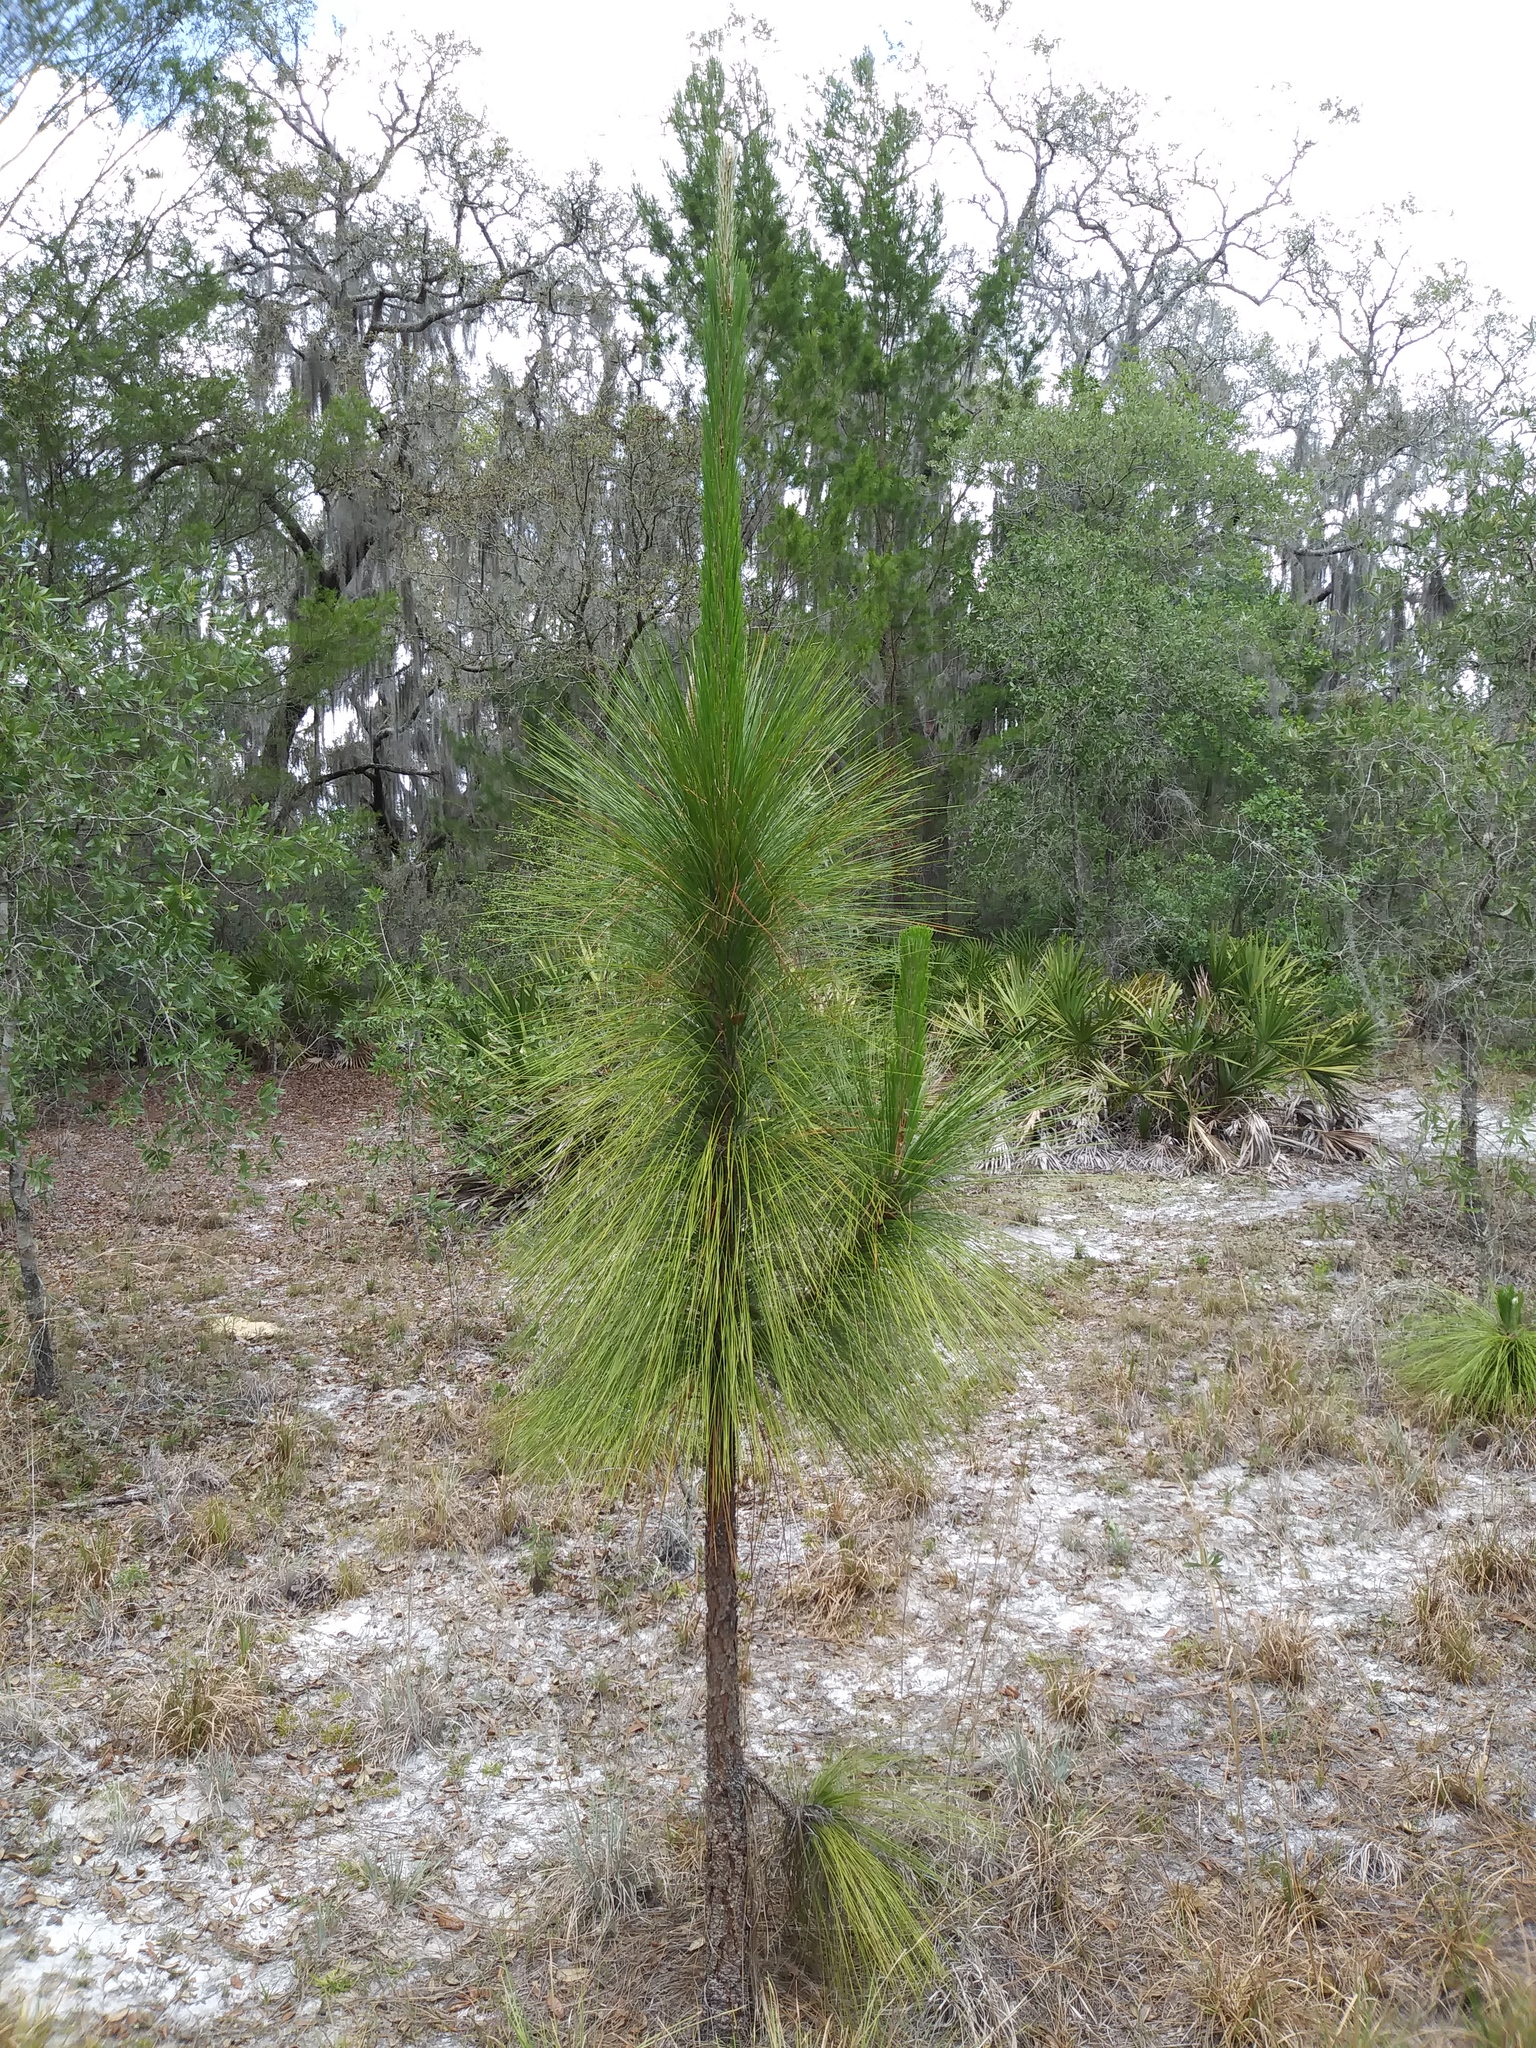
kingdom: Plantae
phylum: Tracheophyta
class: Pinopsida
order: Pinales
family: Pinaceae
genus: Pinus
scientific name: Pinus palustris
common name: Longleaf pine
